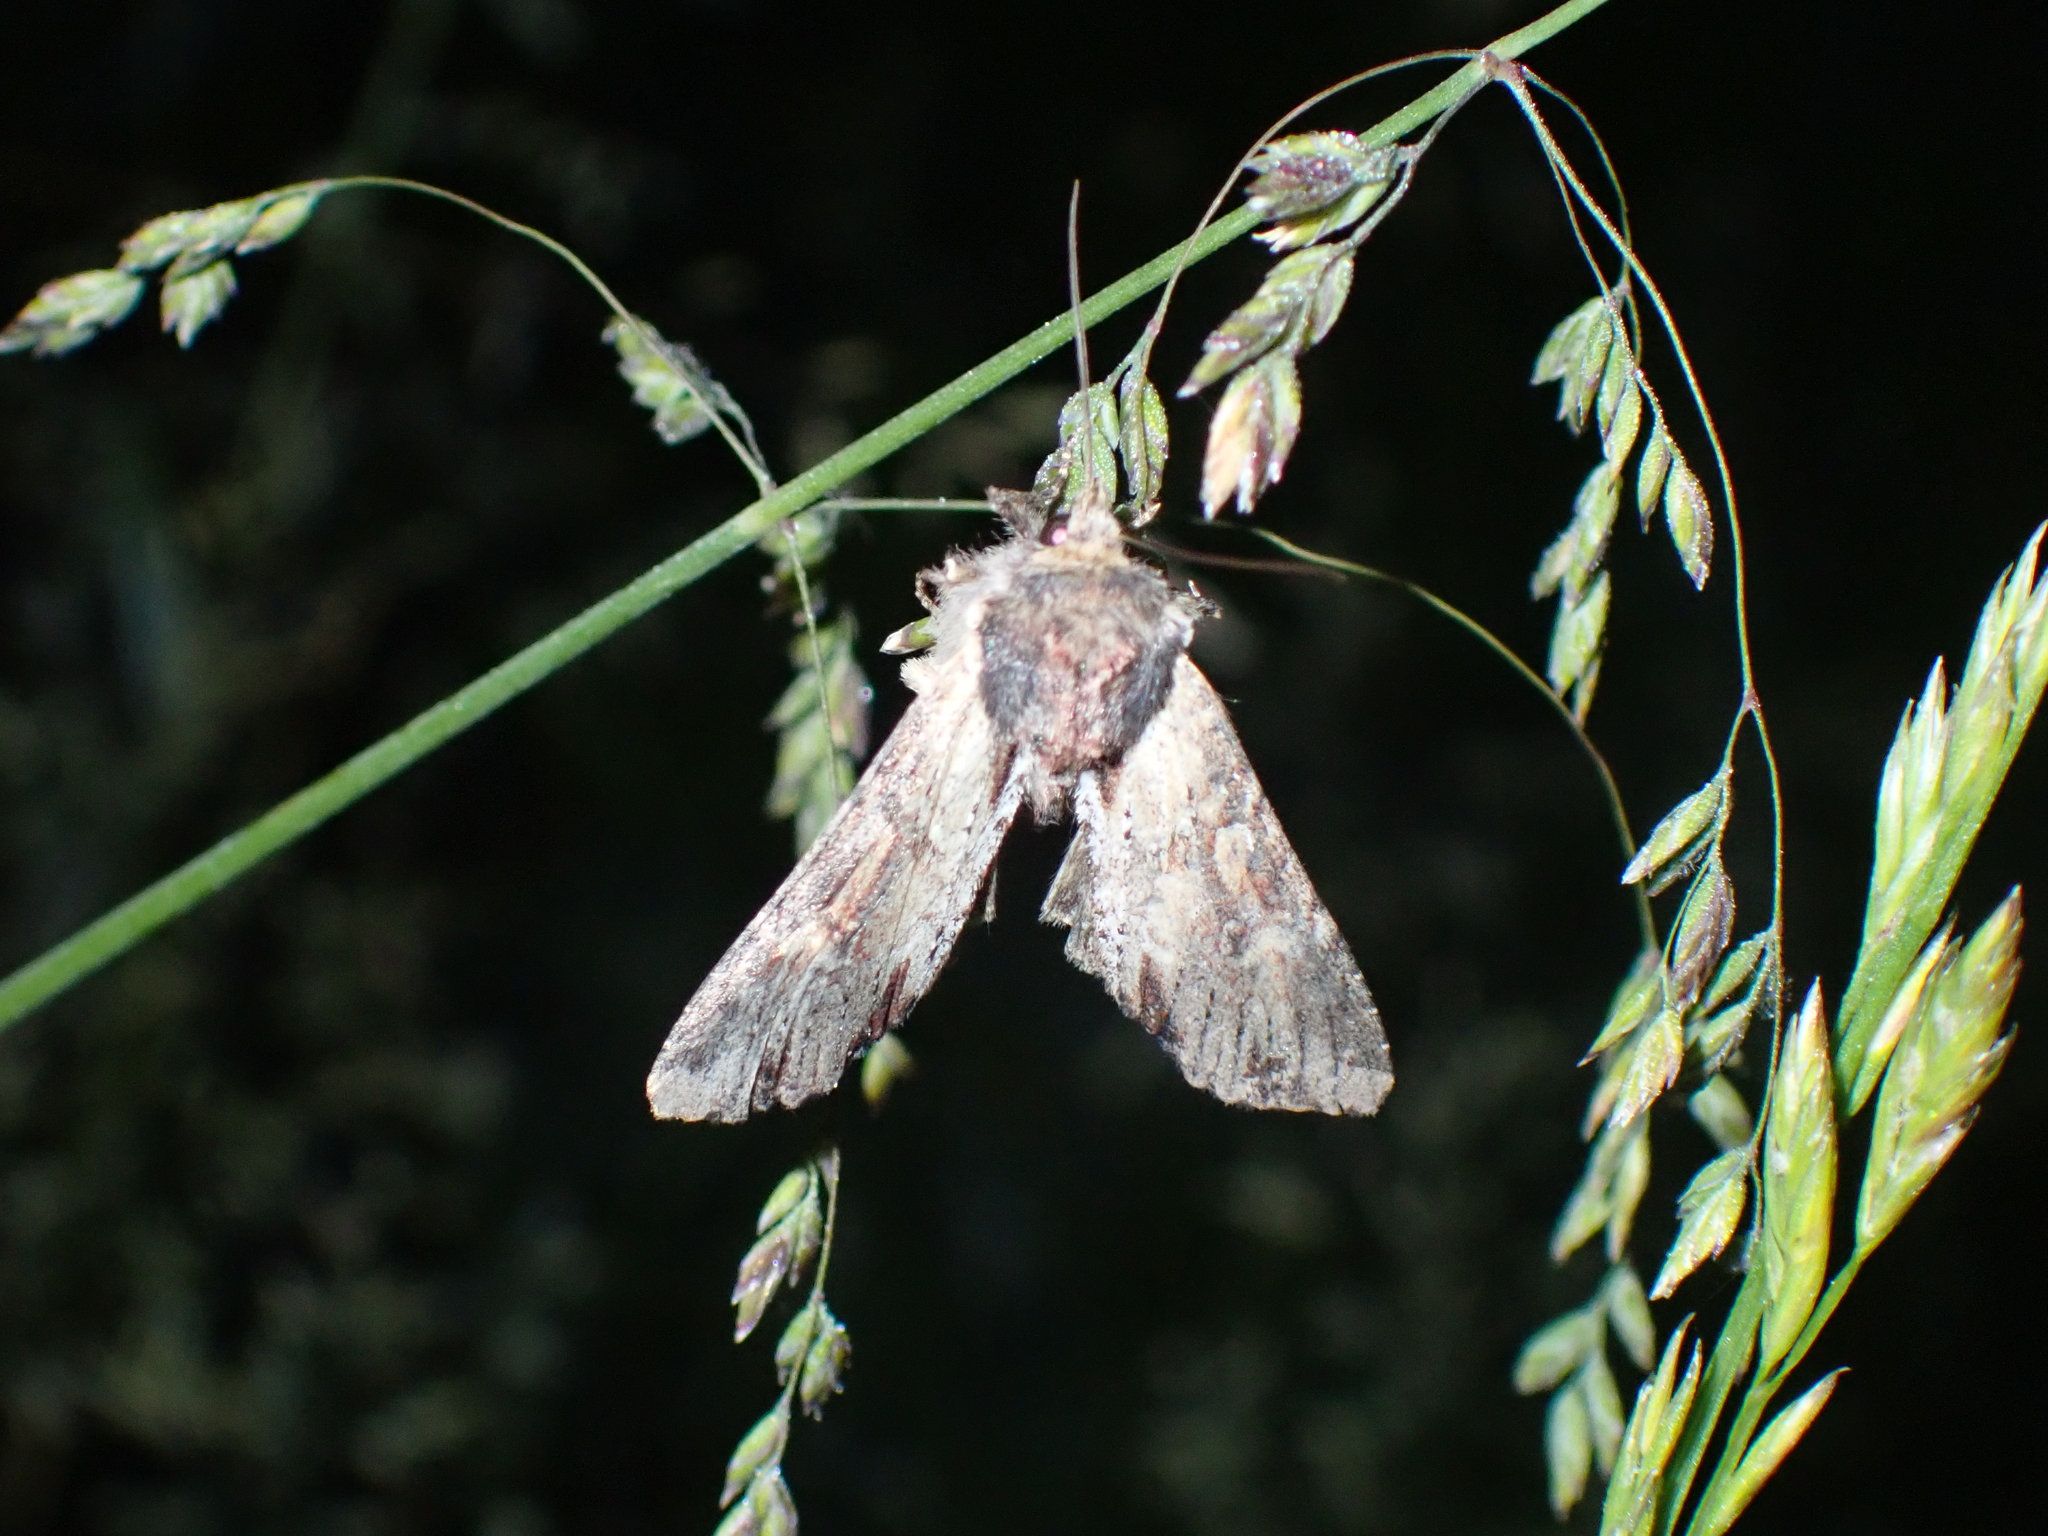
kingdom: Animalia
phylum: Arthropoda
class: Insecta
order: Lepidoptera
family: Noctuidae
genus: Apamea
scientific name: Apamea crenata
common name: Clouded-bordered brindle
